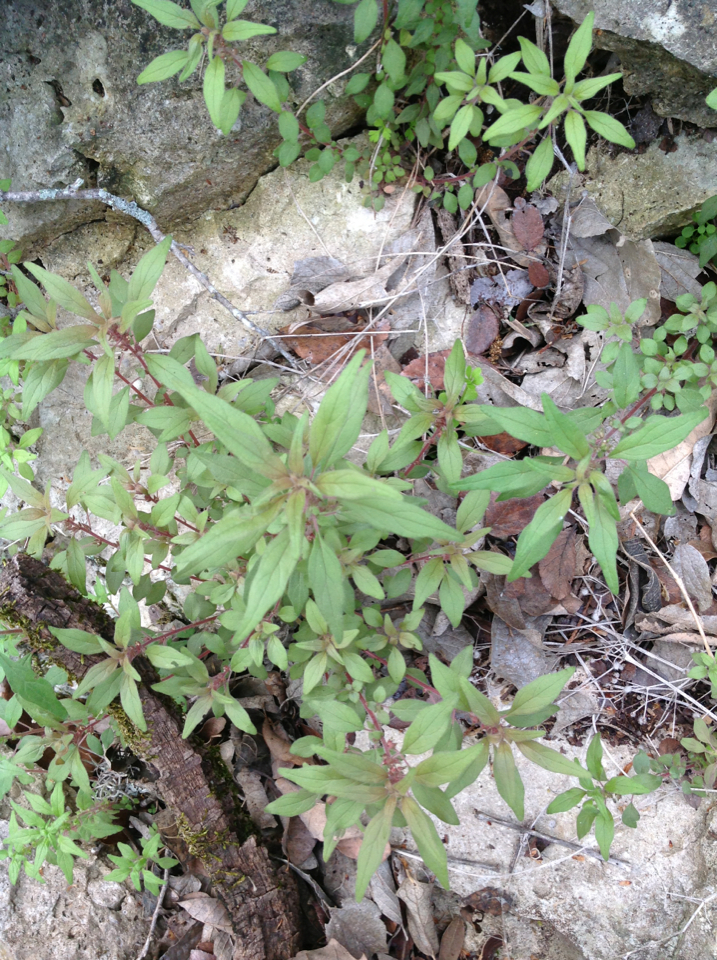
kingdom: Plantae
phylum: Tracheophyta
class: Magnoliopsida
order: Rosales
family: Urticaceae
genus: Parietaria
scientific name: Parietaria pensylvanica
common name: Pennsylvania pellitory
